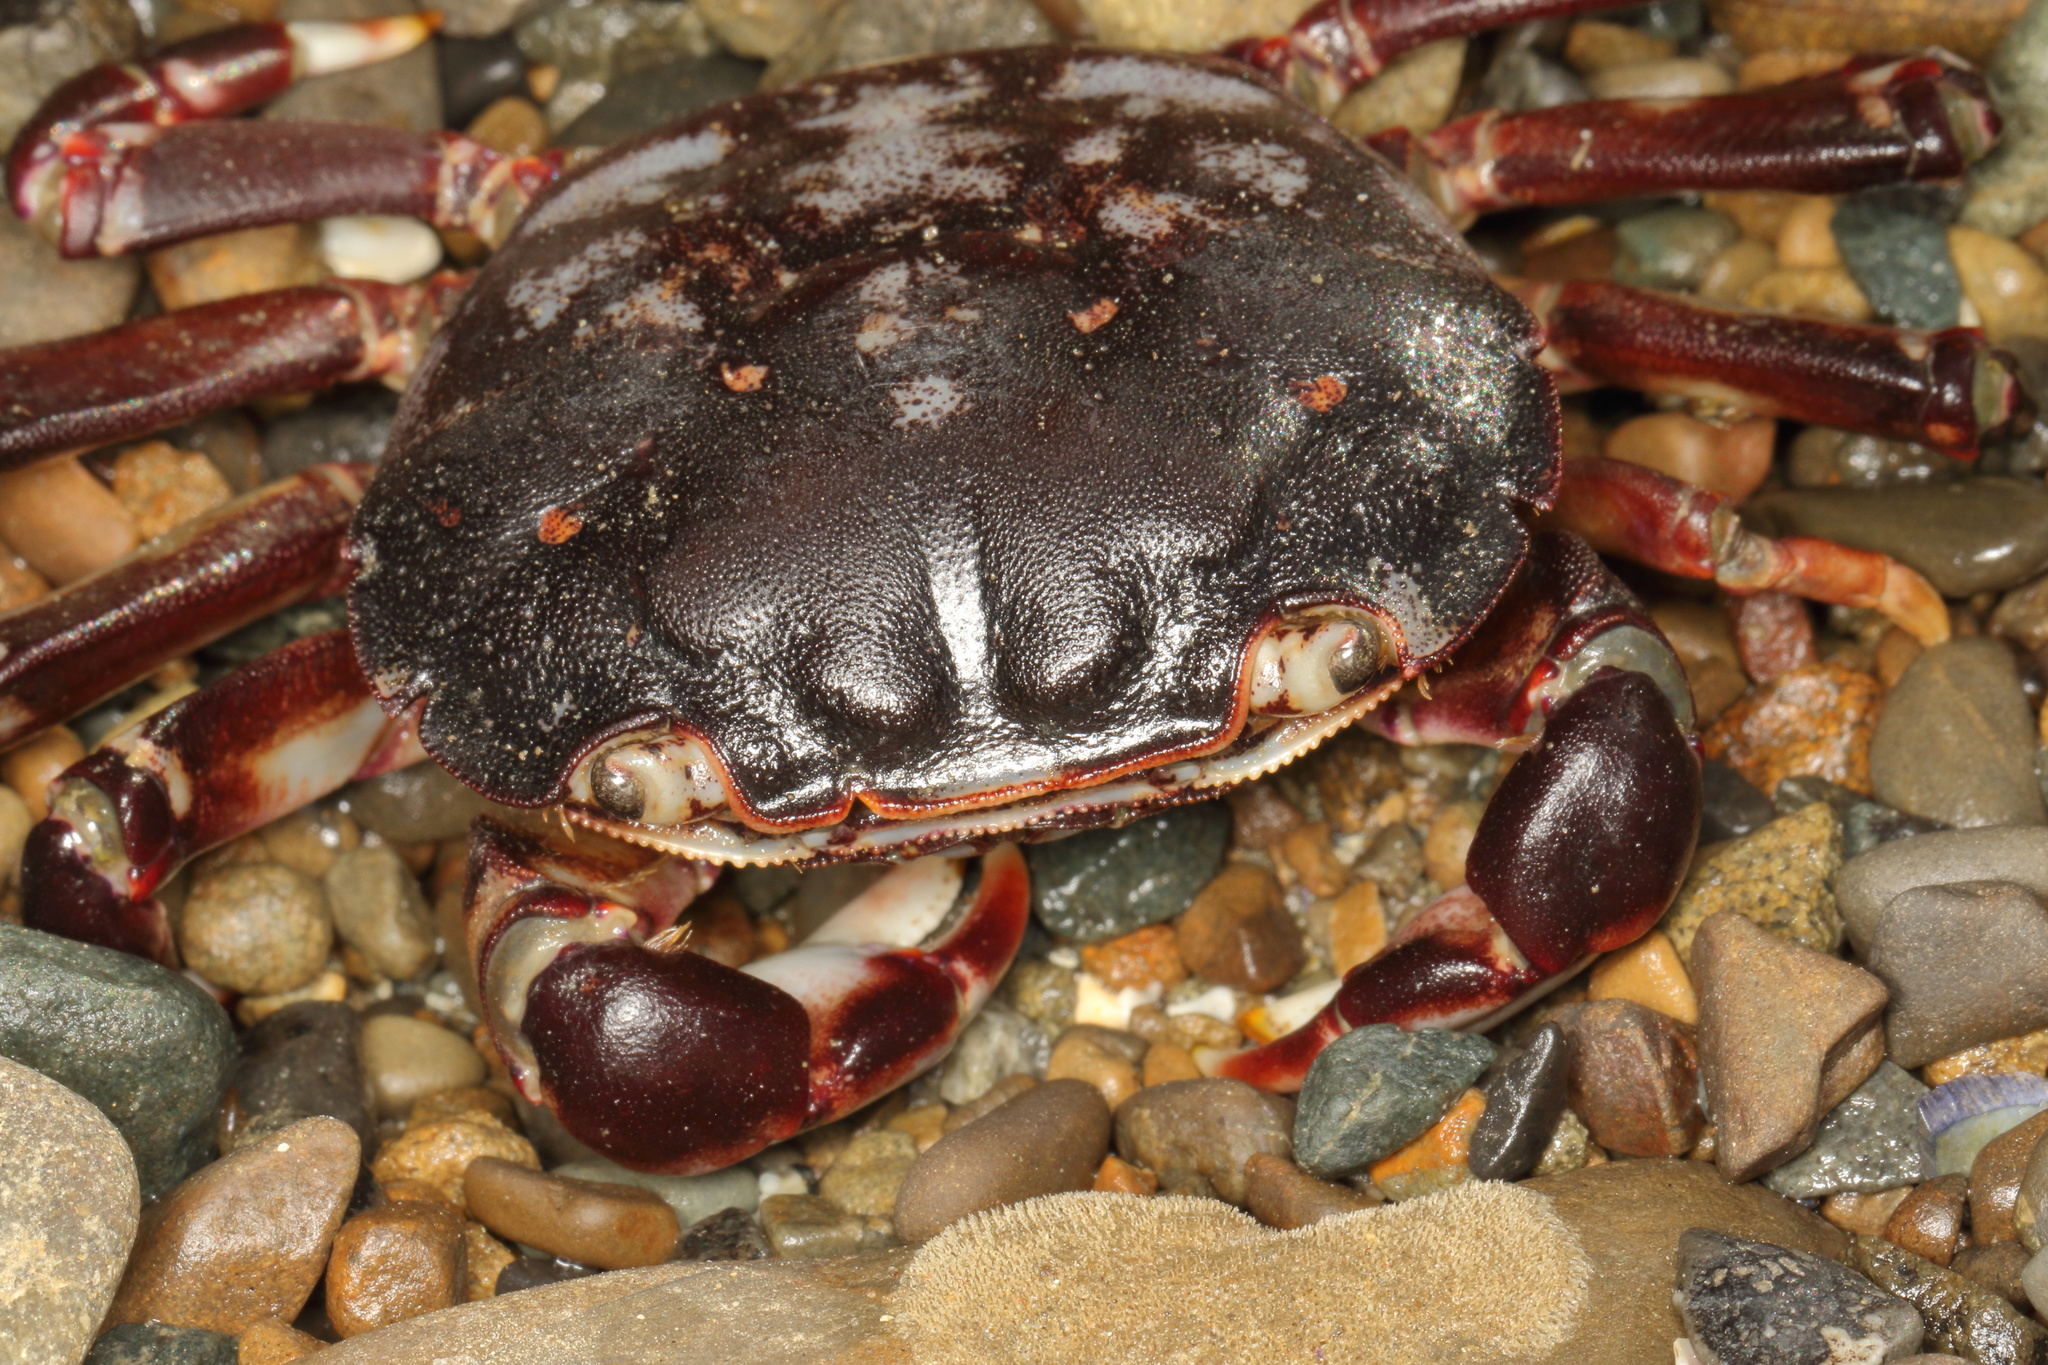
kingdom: Animalia
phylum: Arthropoda
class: Malacostraca
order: Decapoda
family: Varunidae
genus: Hemigrapsus
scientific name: Hemigrapsus sexdentatus
